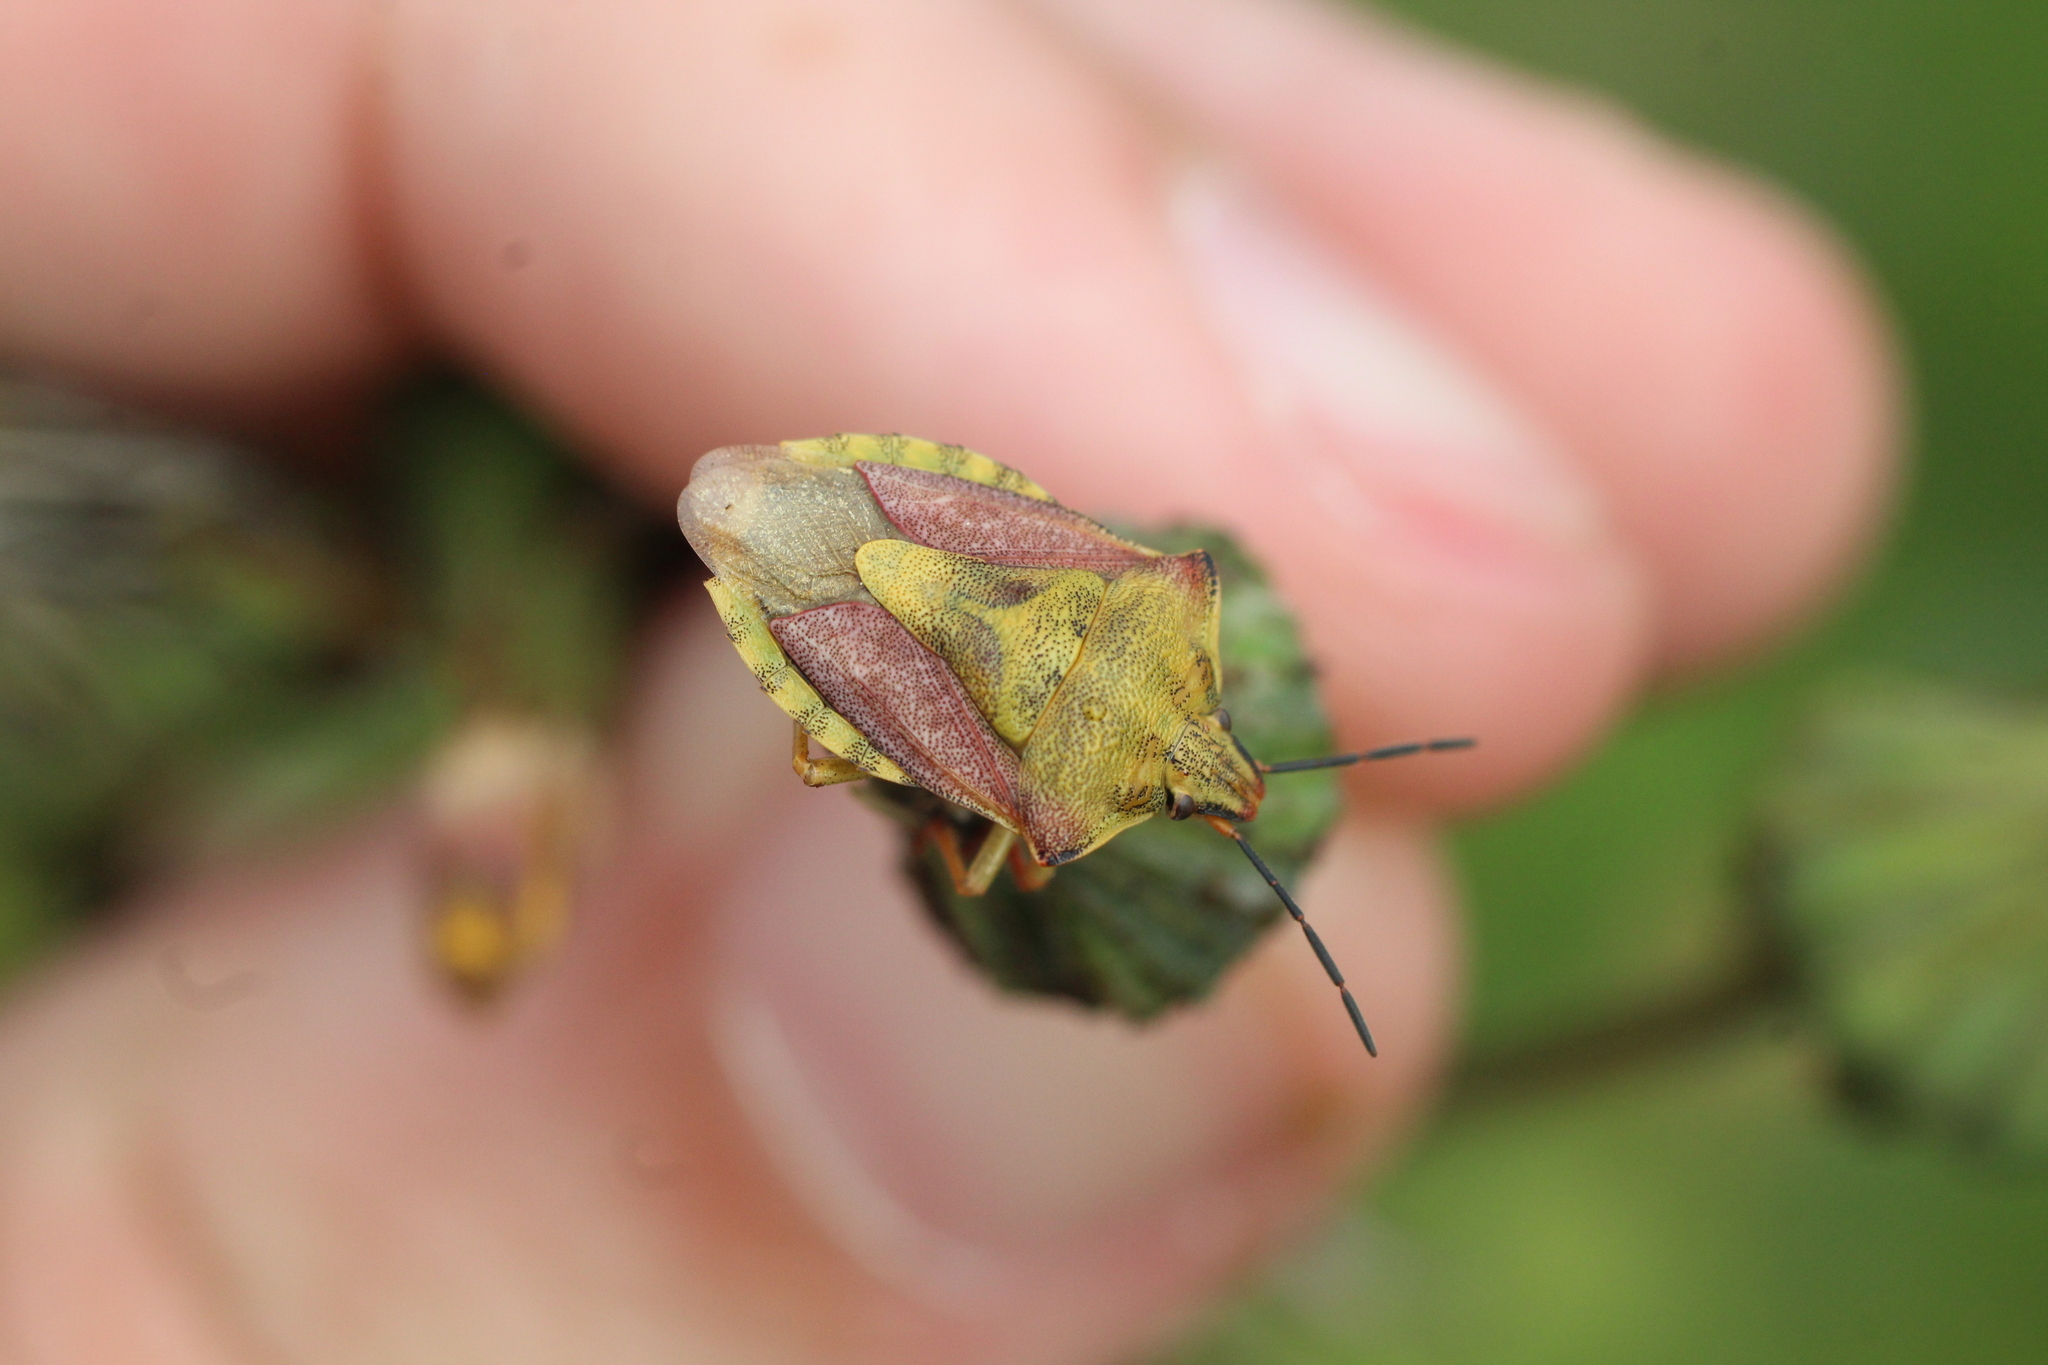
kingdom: Animalia
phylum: Arthropoda
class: Insecta
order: Hemiptera
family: Pentatomidae
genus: Carpocoris
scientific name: Carpocoris purpureipennis
